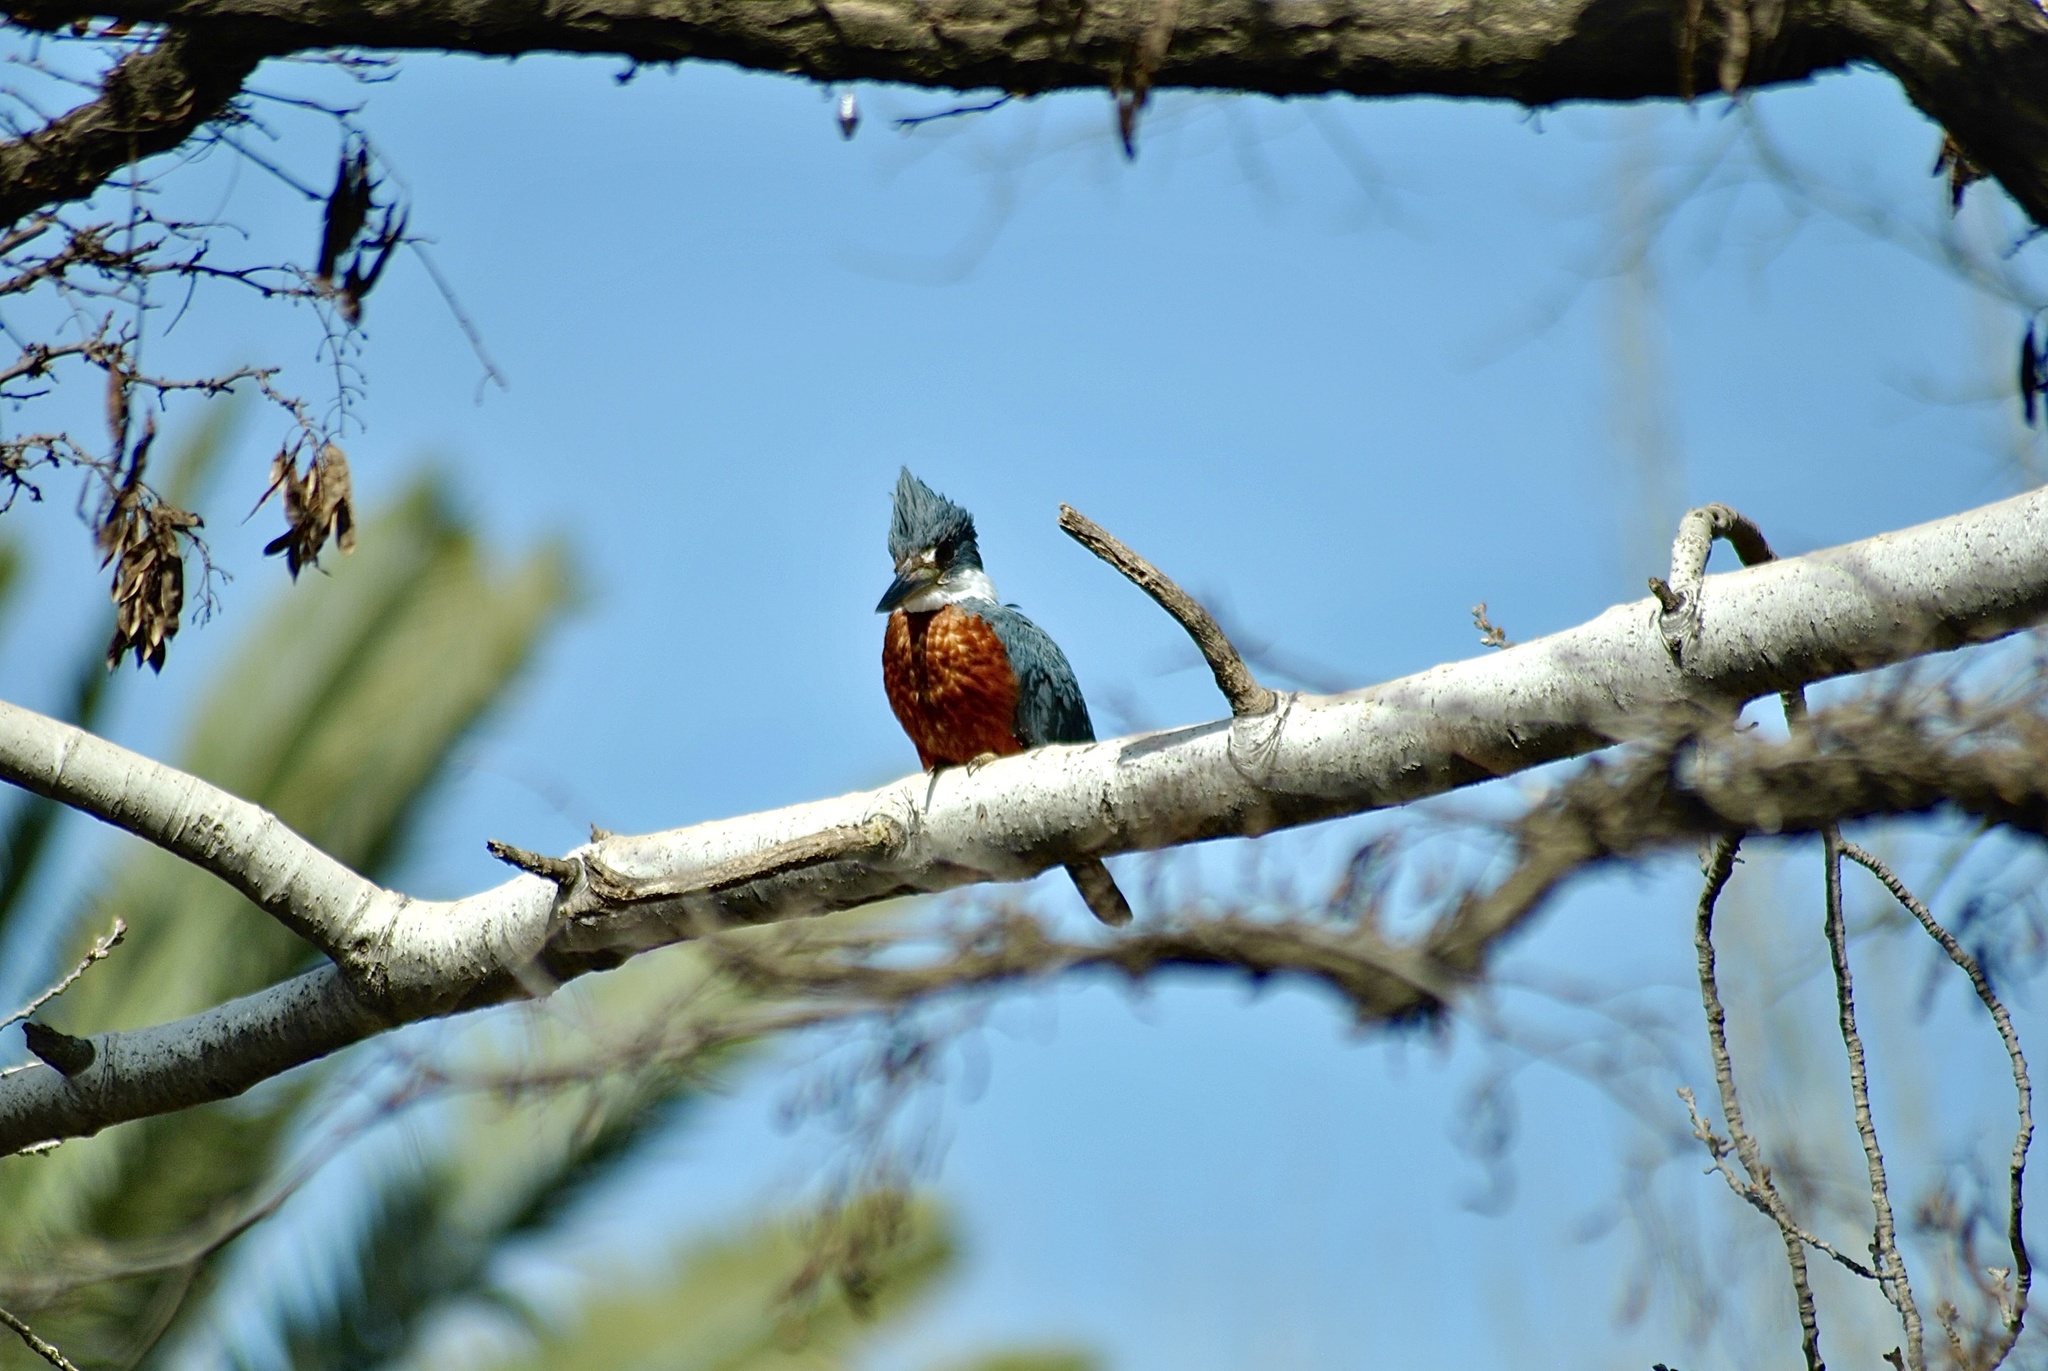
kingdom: Animalia
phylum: Chordata
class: Aves
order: Coraciiformes
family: Alcedinidae
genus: Megaceryle
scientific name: Megaceryle torquata
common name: Ringed kingfisher
